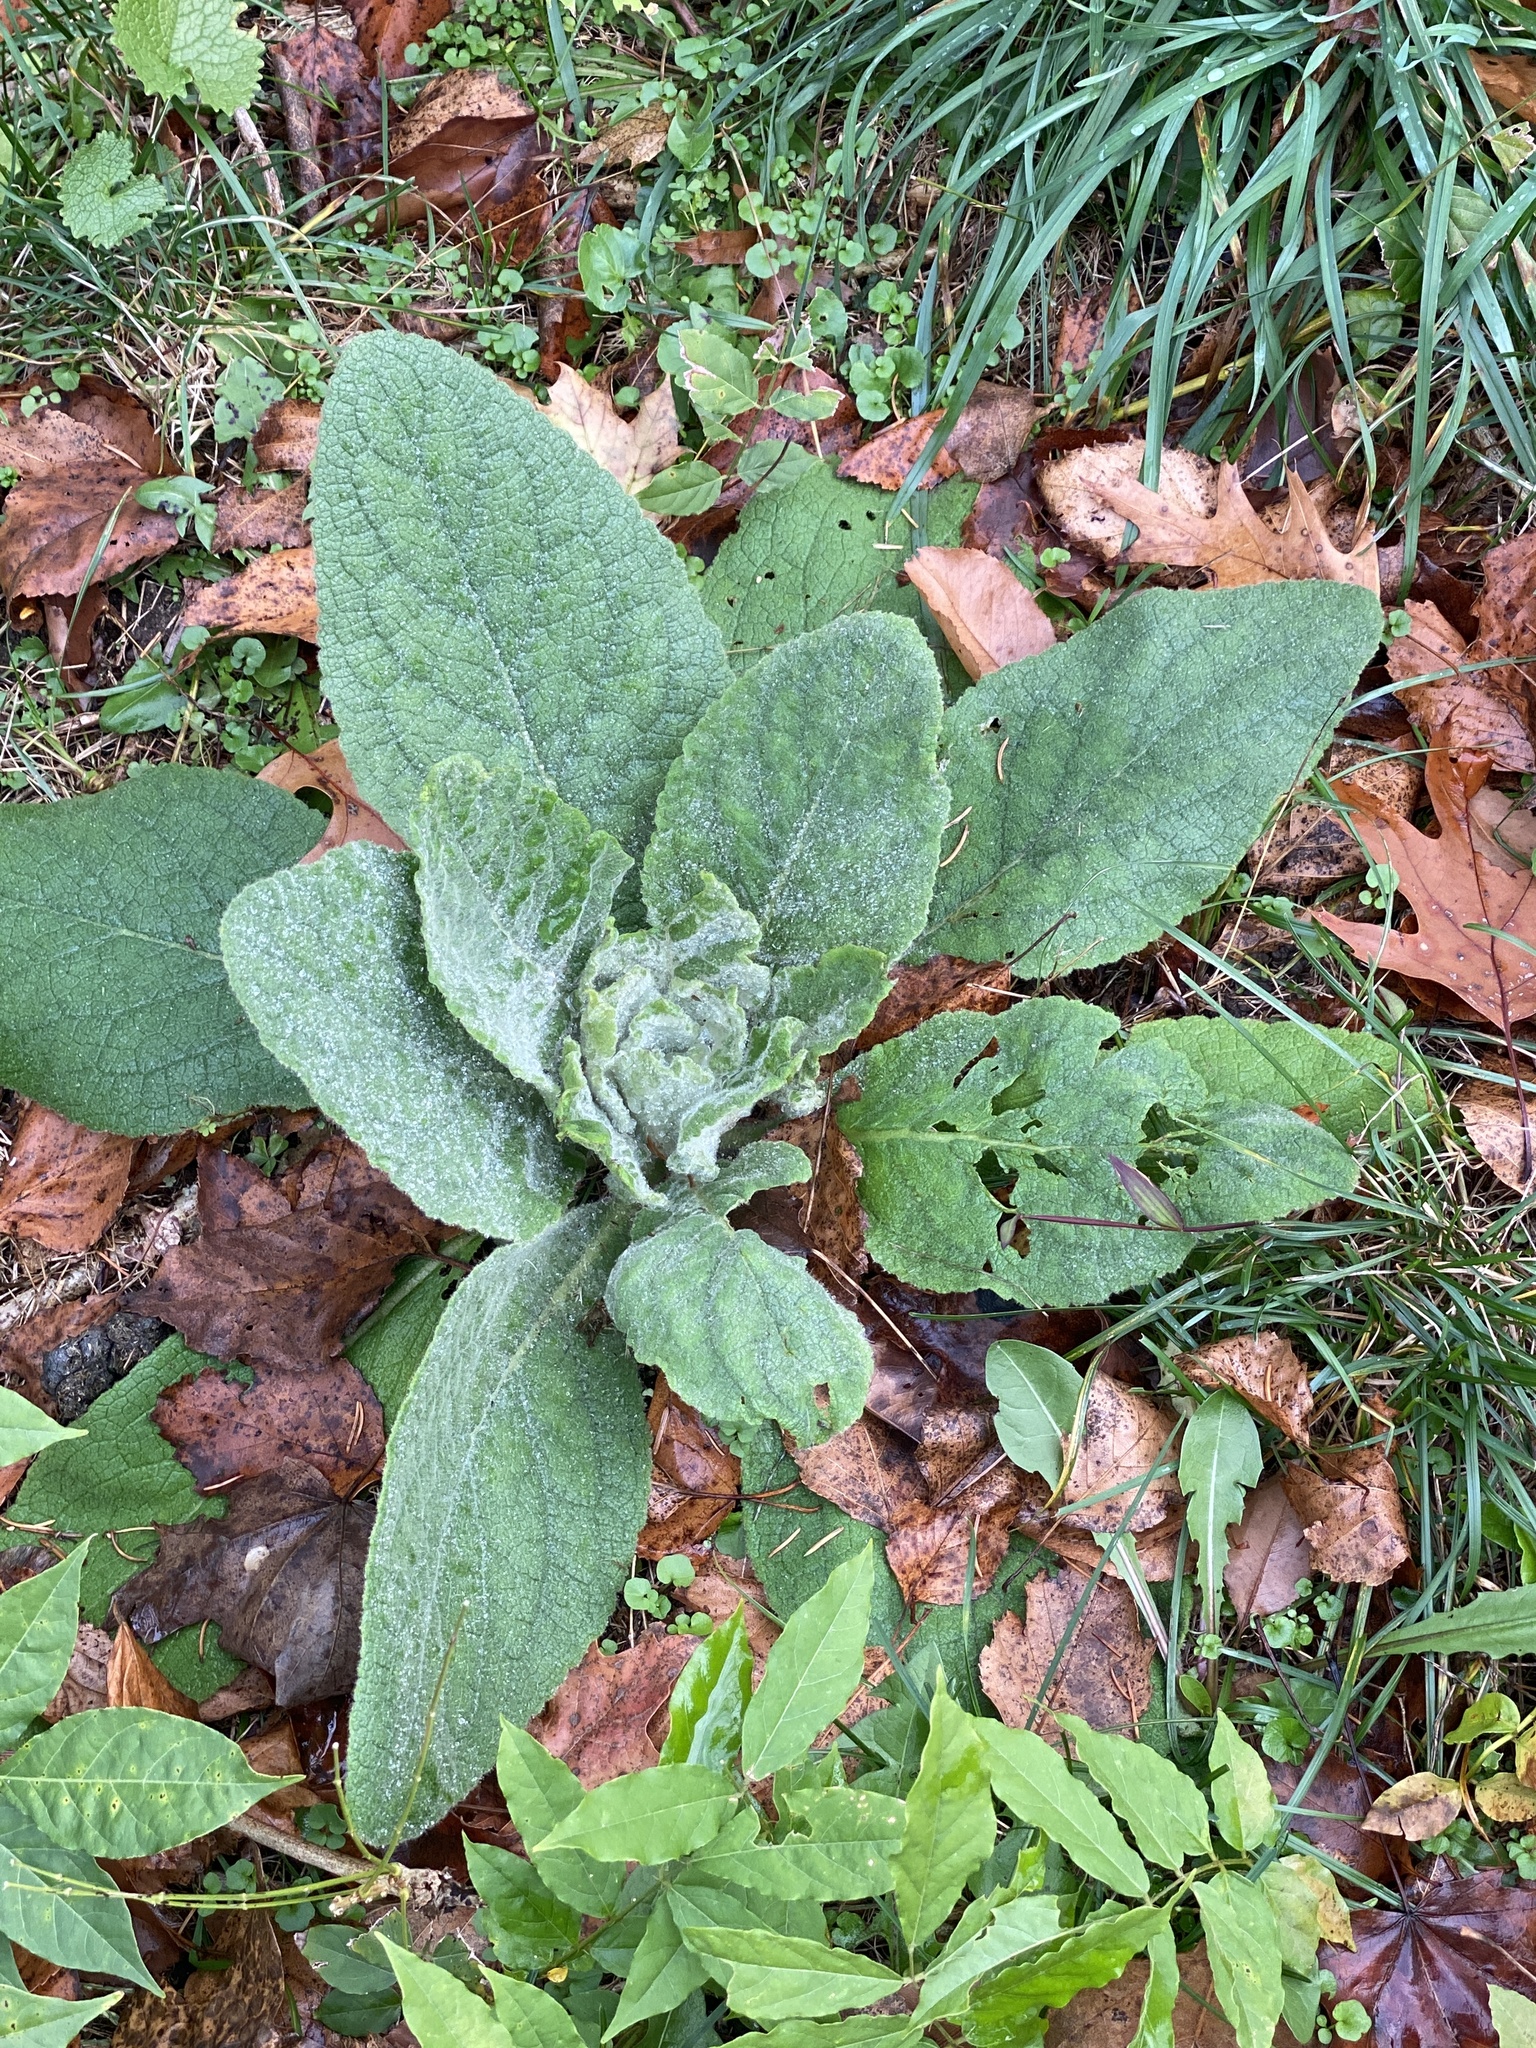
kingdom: Plantae
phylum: Tracheophyta
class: Magnoliopsida
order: Lamiales
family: Scrophulariaceae
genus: Verbascum
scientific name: Verbascum thapsus
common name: Common mullein
